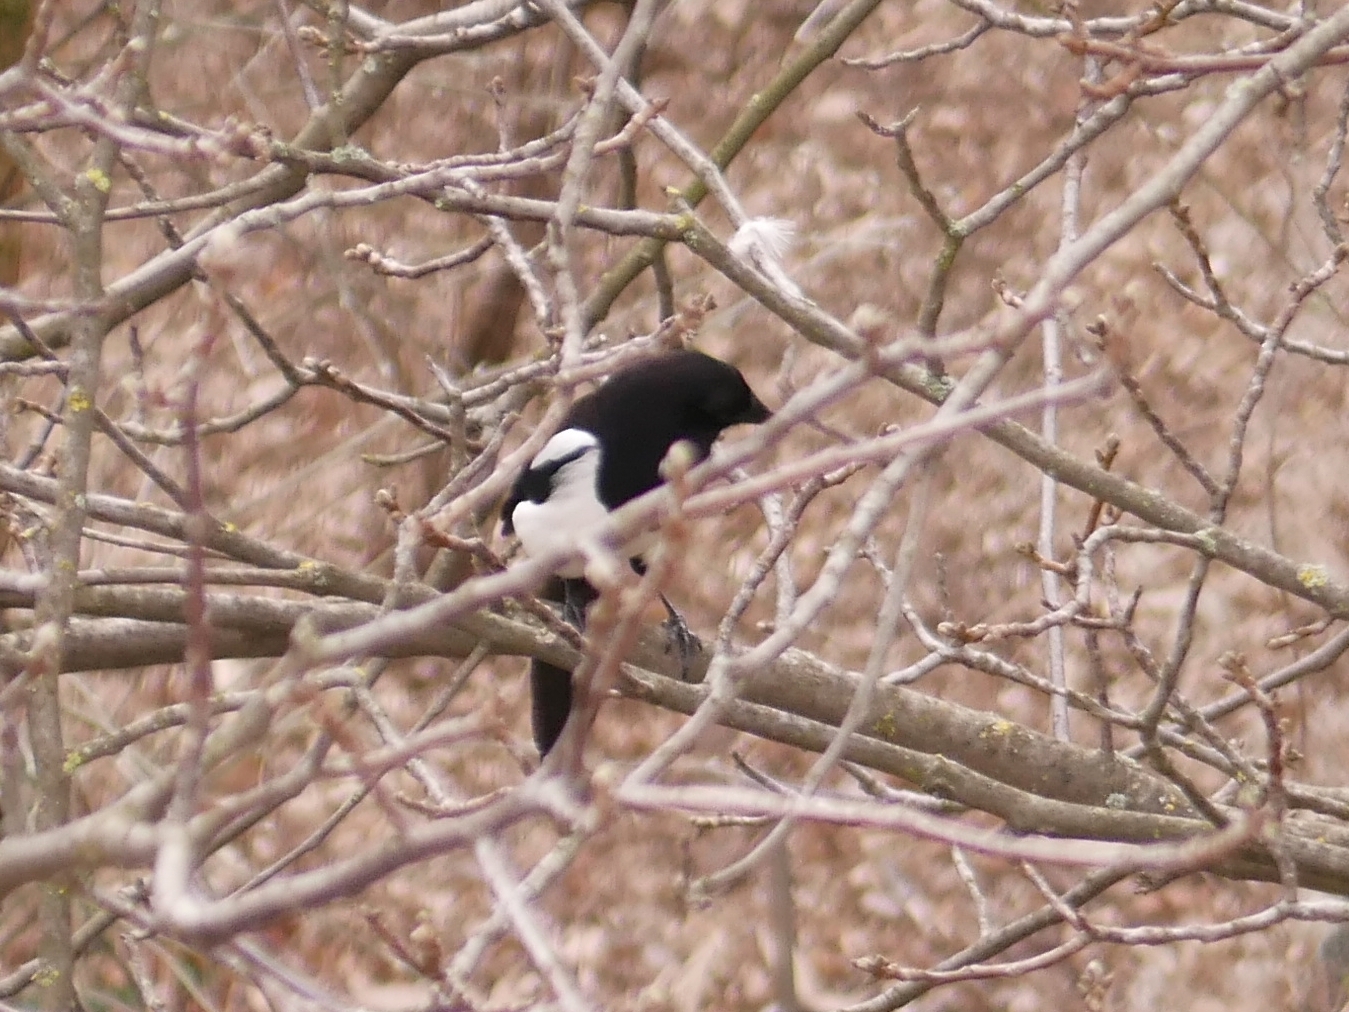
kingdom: Animalia
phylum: Chordata
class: Aves
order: Passeriformes
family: Corvidae
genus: Pica
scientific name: Pica pica
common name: Eurasian magpie
